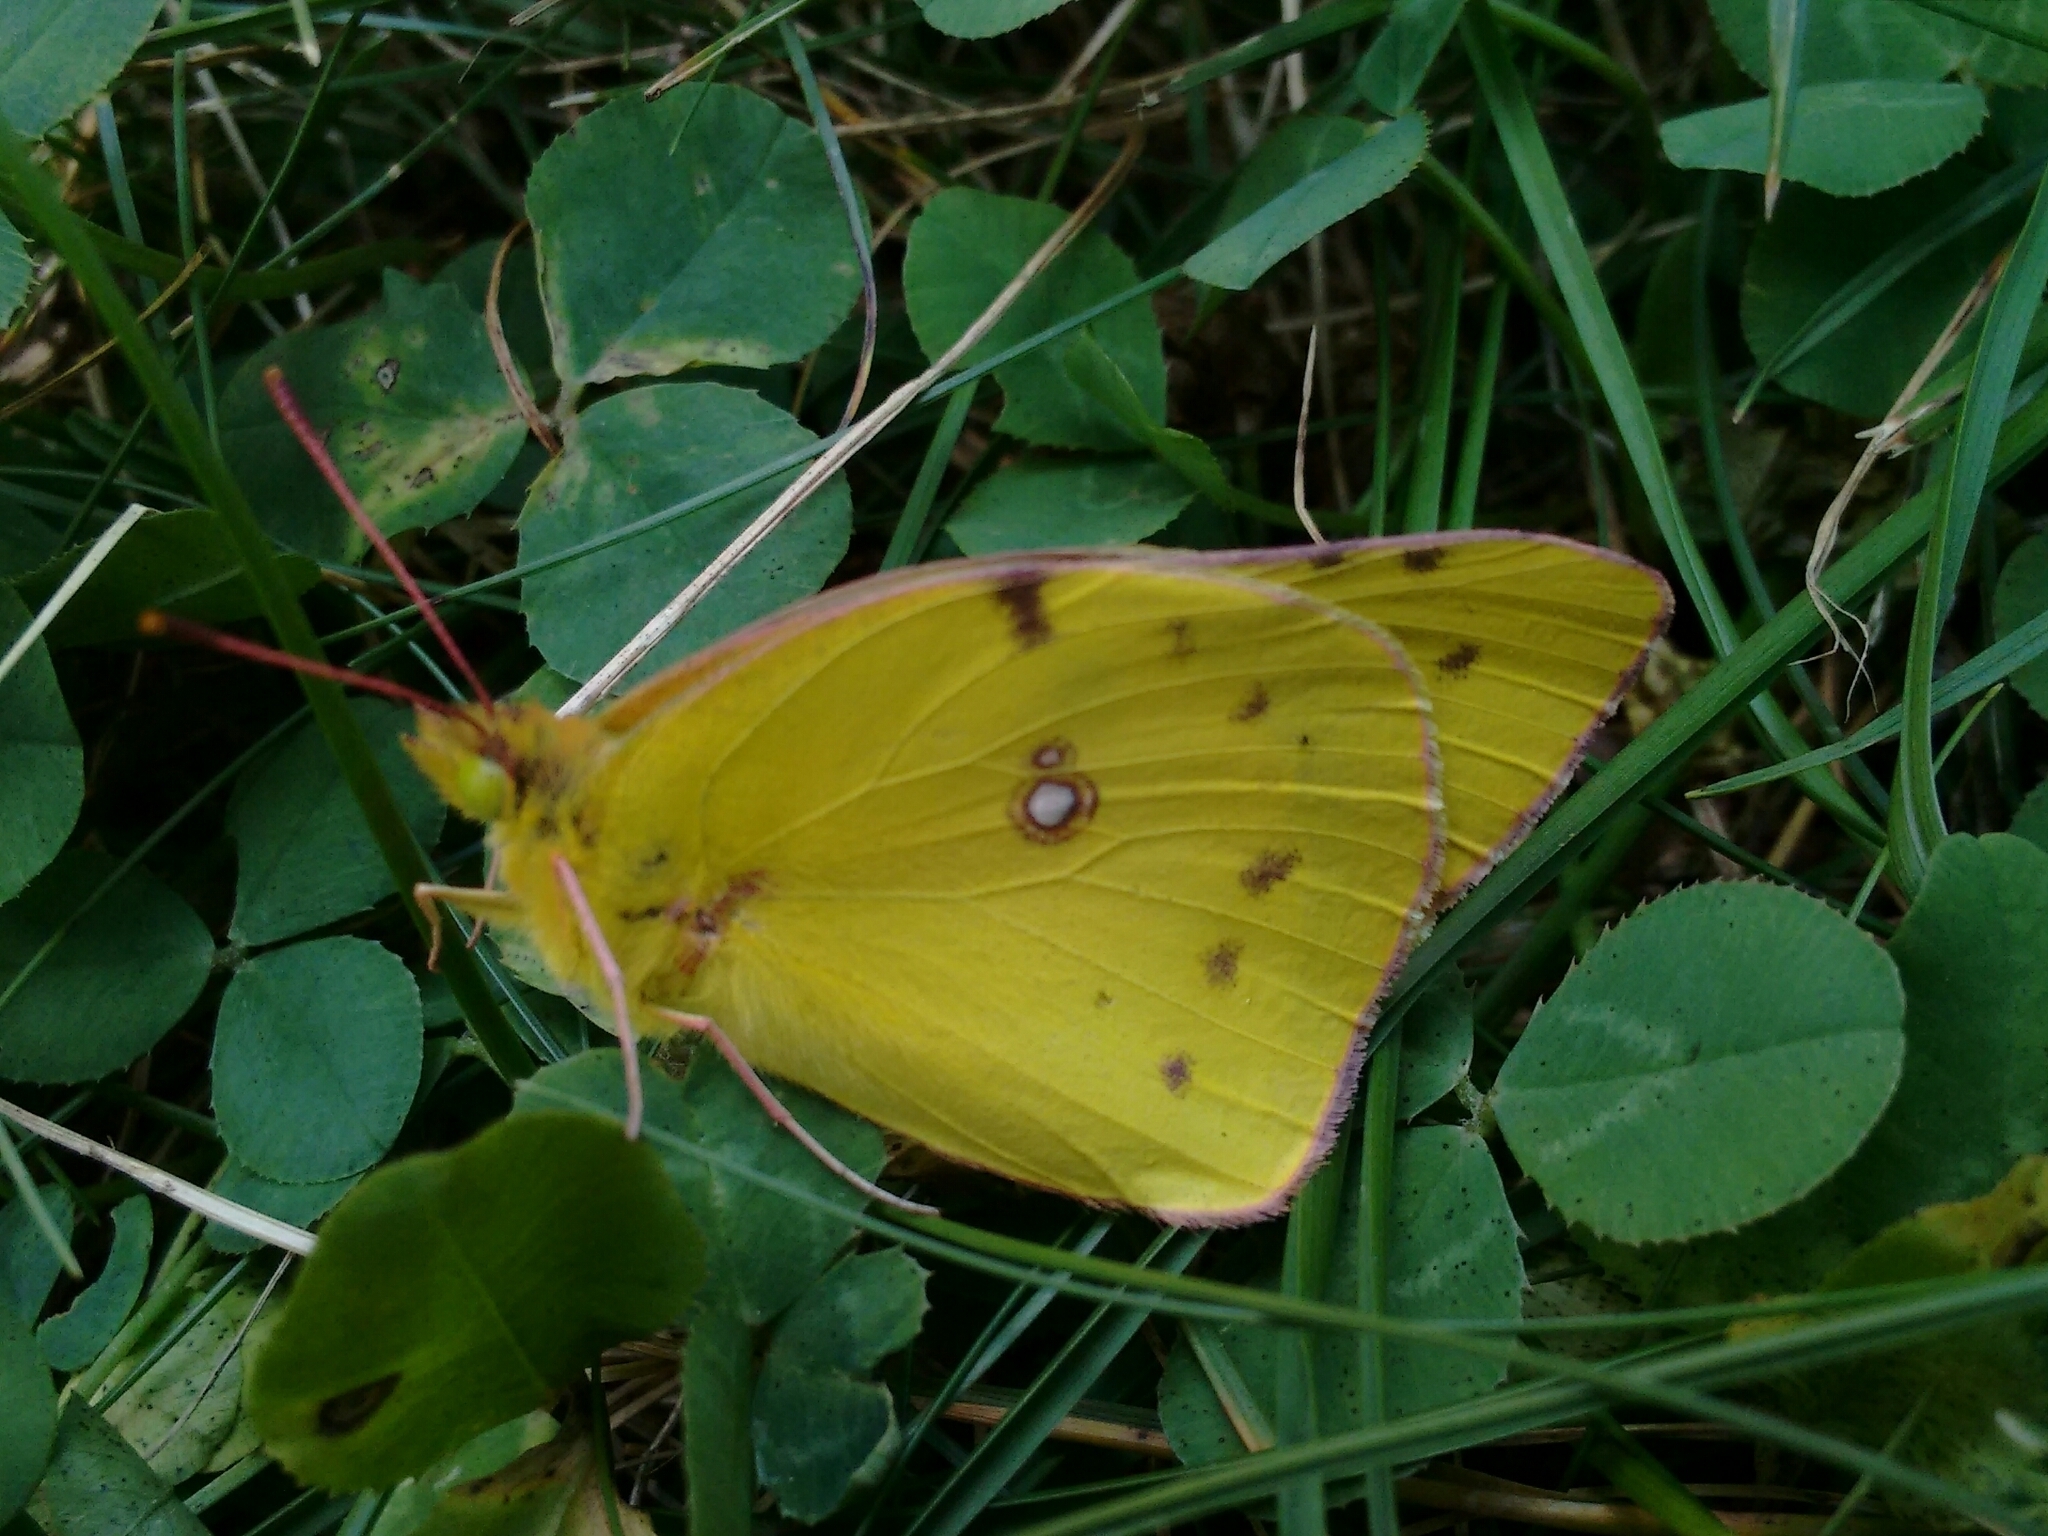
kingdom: Animalia
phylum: Arthropoda
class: Insecta
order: Lepidoptera
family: Pieridae
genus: Colias
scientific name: Colias eurytheme
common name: Alfalfa butterfly
